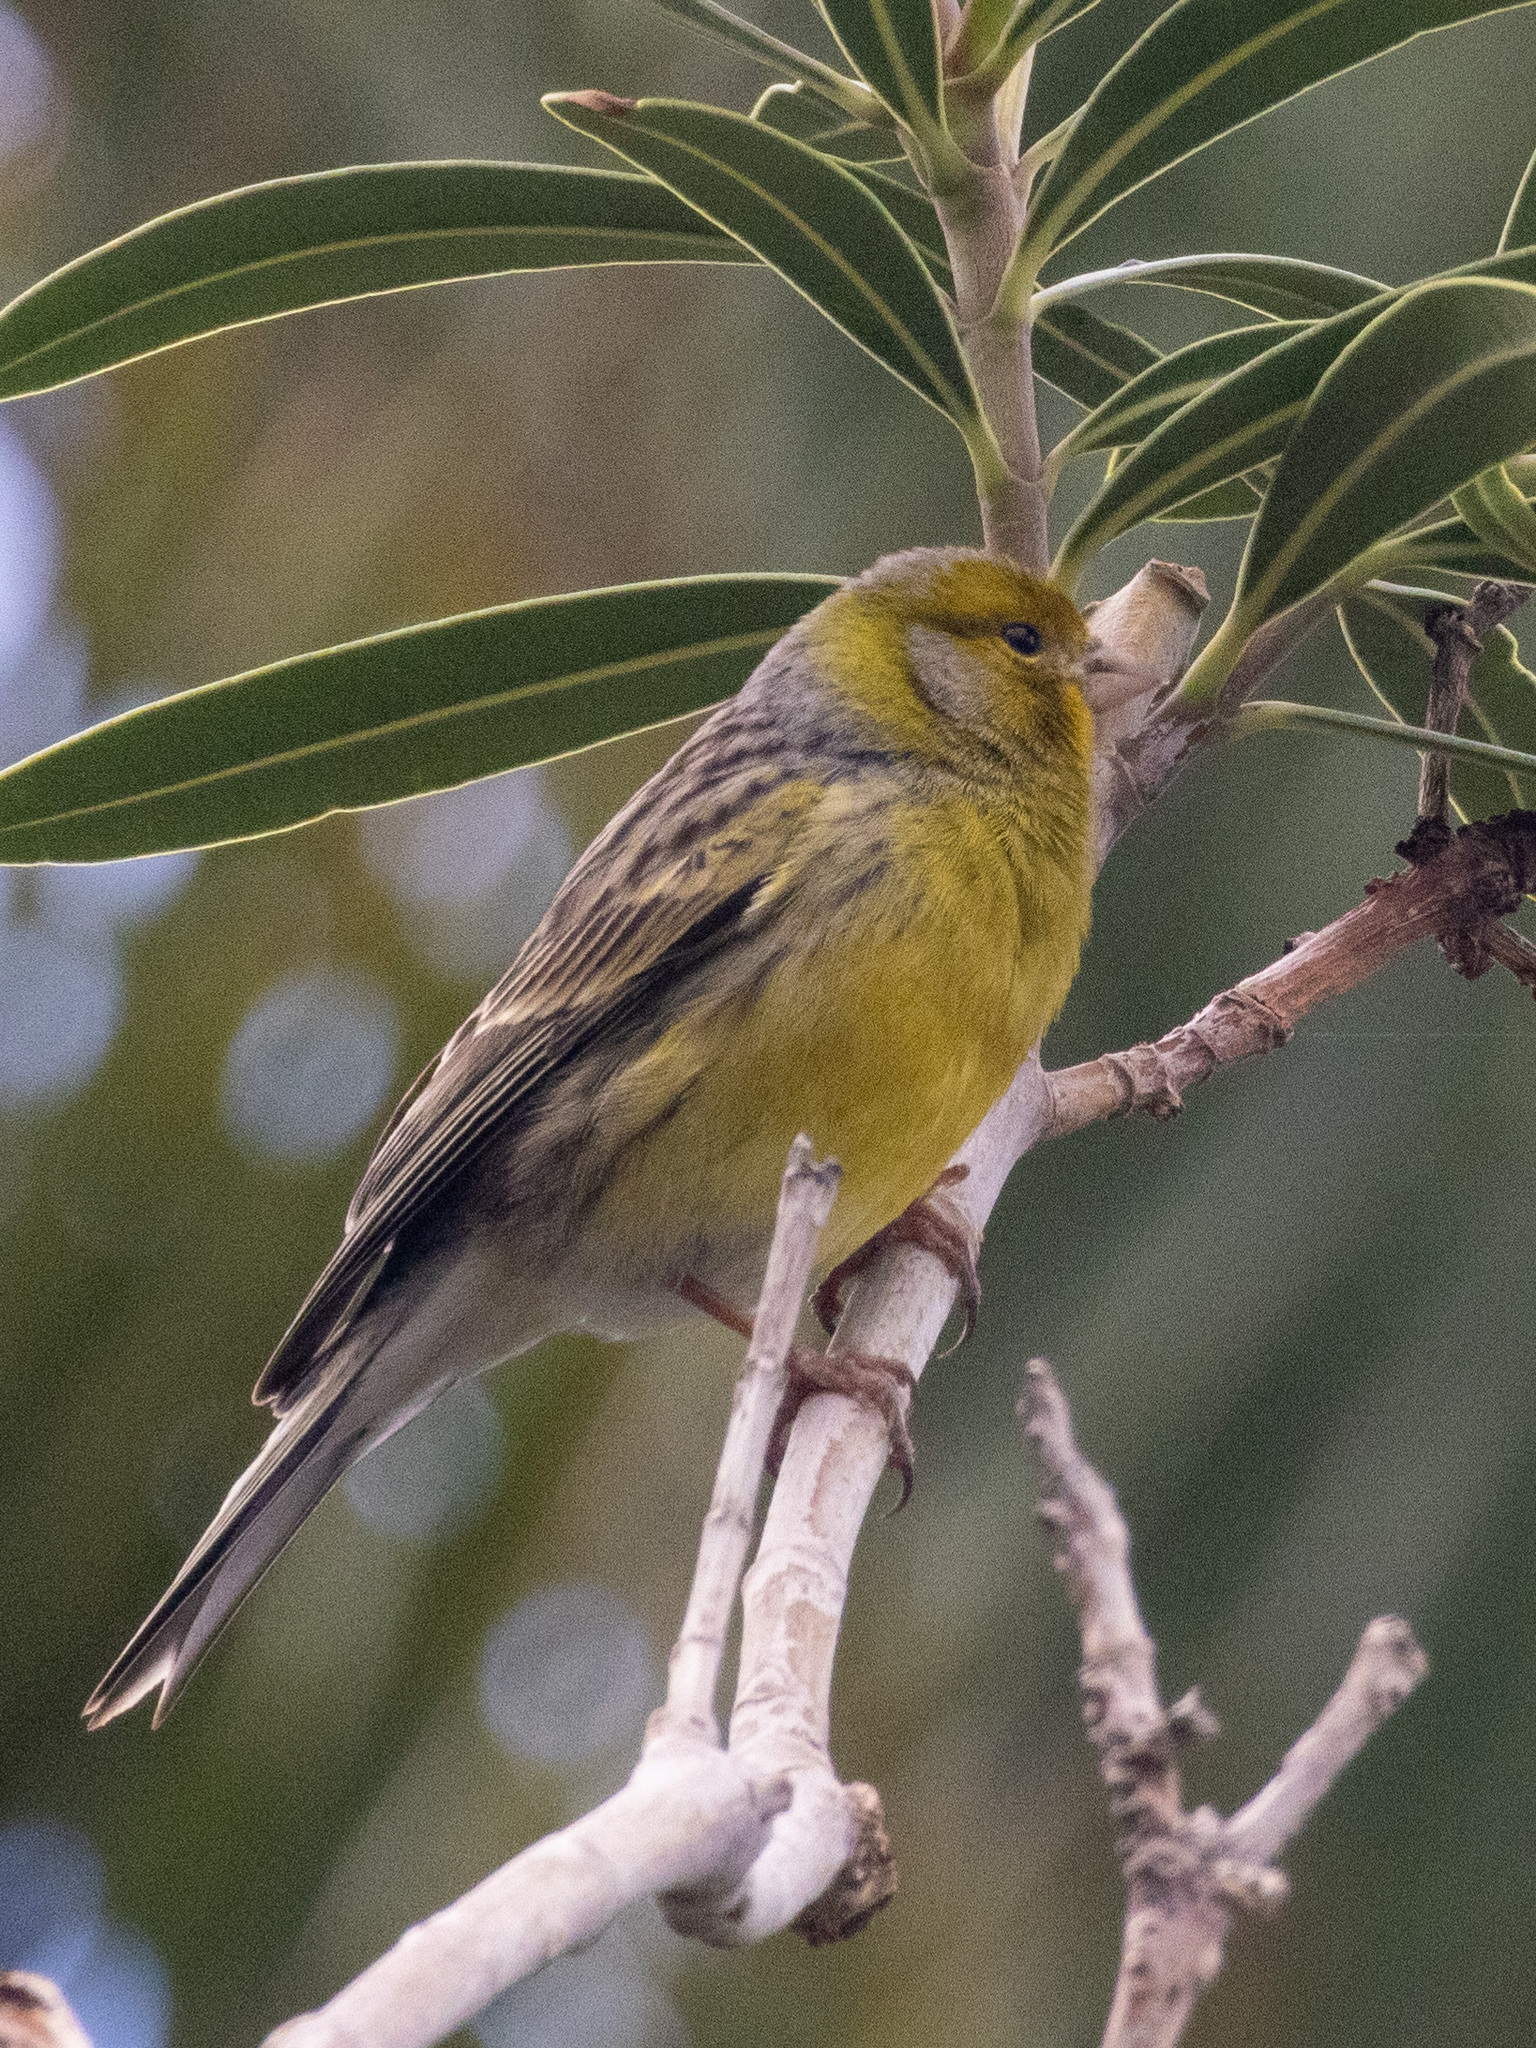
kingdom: Animalia
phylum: Chordata
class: Aves
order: Passeriformes
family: Fringillidae
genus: Serinus
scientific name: Serinus canaria
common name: Atlantic canary
